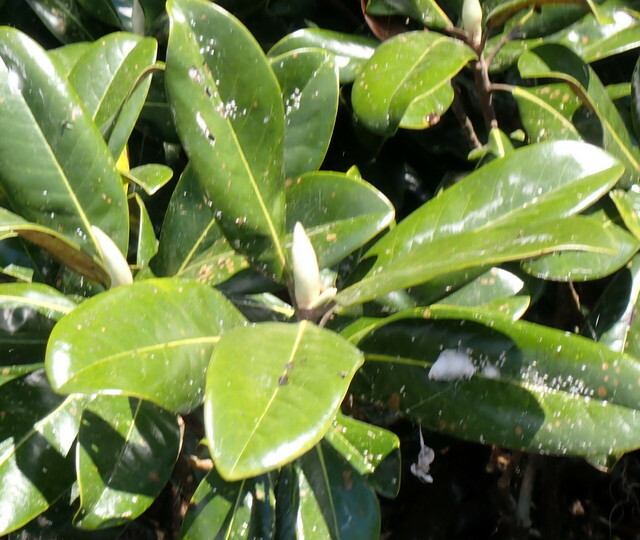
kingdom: Plantae
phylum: Tracheophyta
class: Magnoliopsida
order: Magnoliales
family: Magnoliaceae
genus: Magnolia
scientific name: Magnolia grandiflora
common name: Southern magnolia
